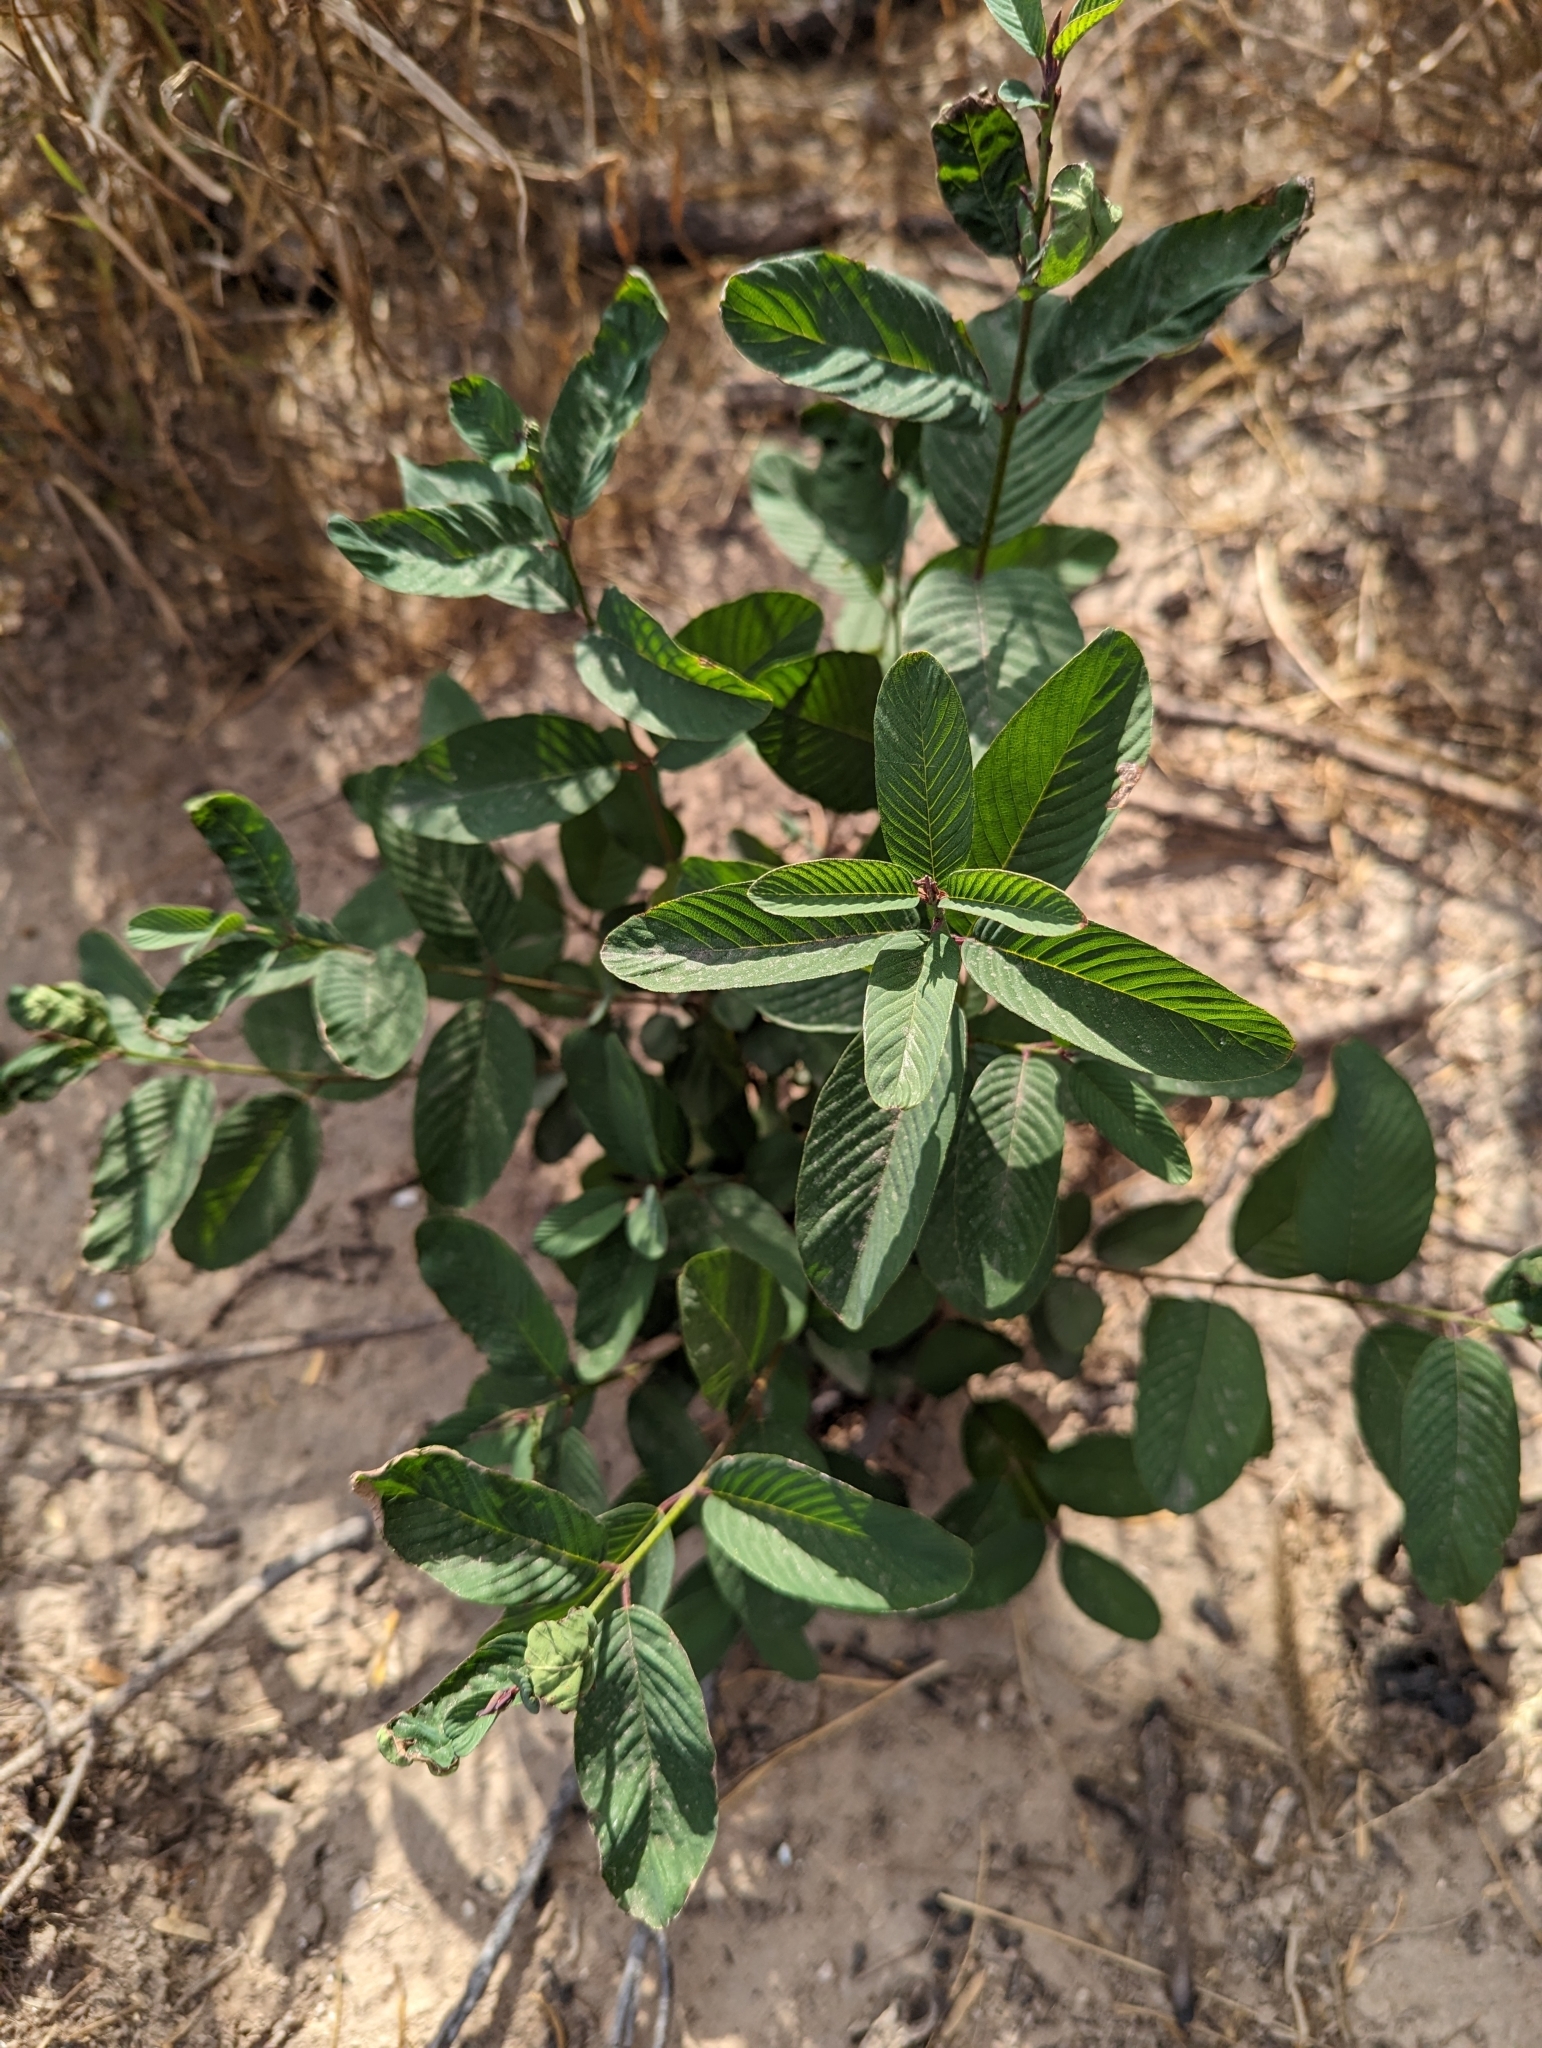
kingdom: Plantae
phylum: Tracheophyta
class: Magnoliopsida
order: Rosales
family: Rhamnaceae
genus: Karwinskia
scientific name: Karwinskia humboldtiana
